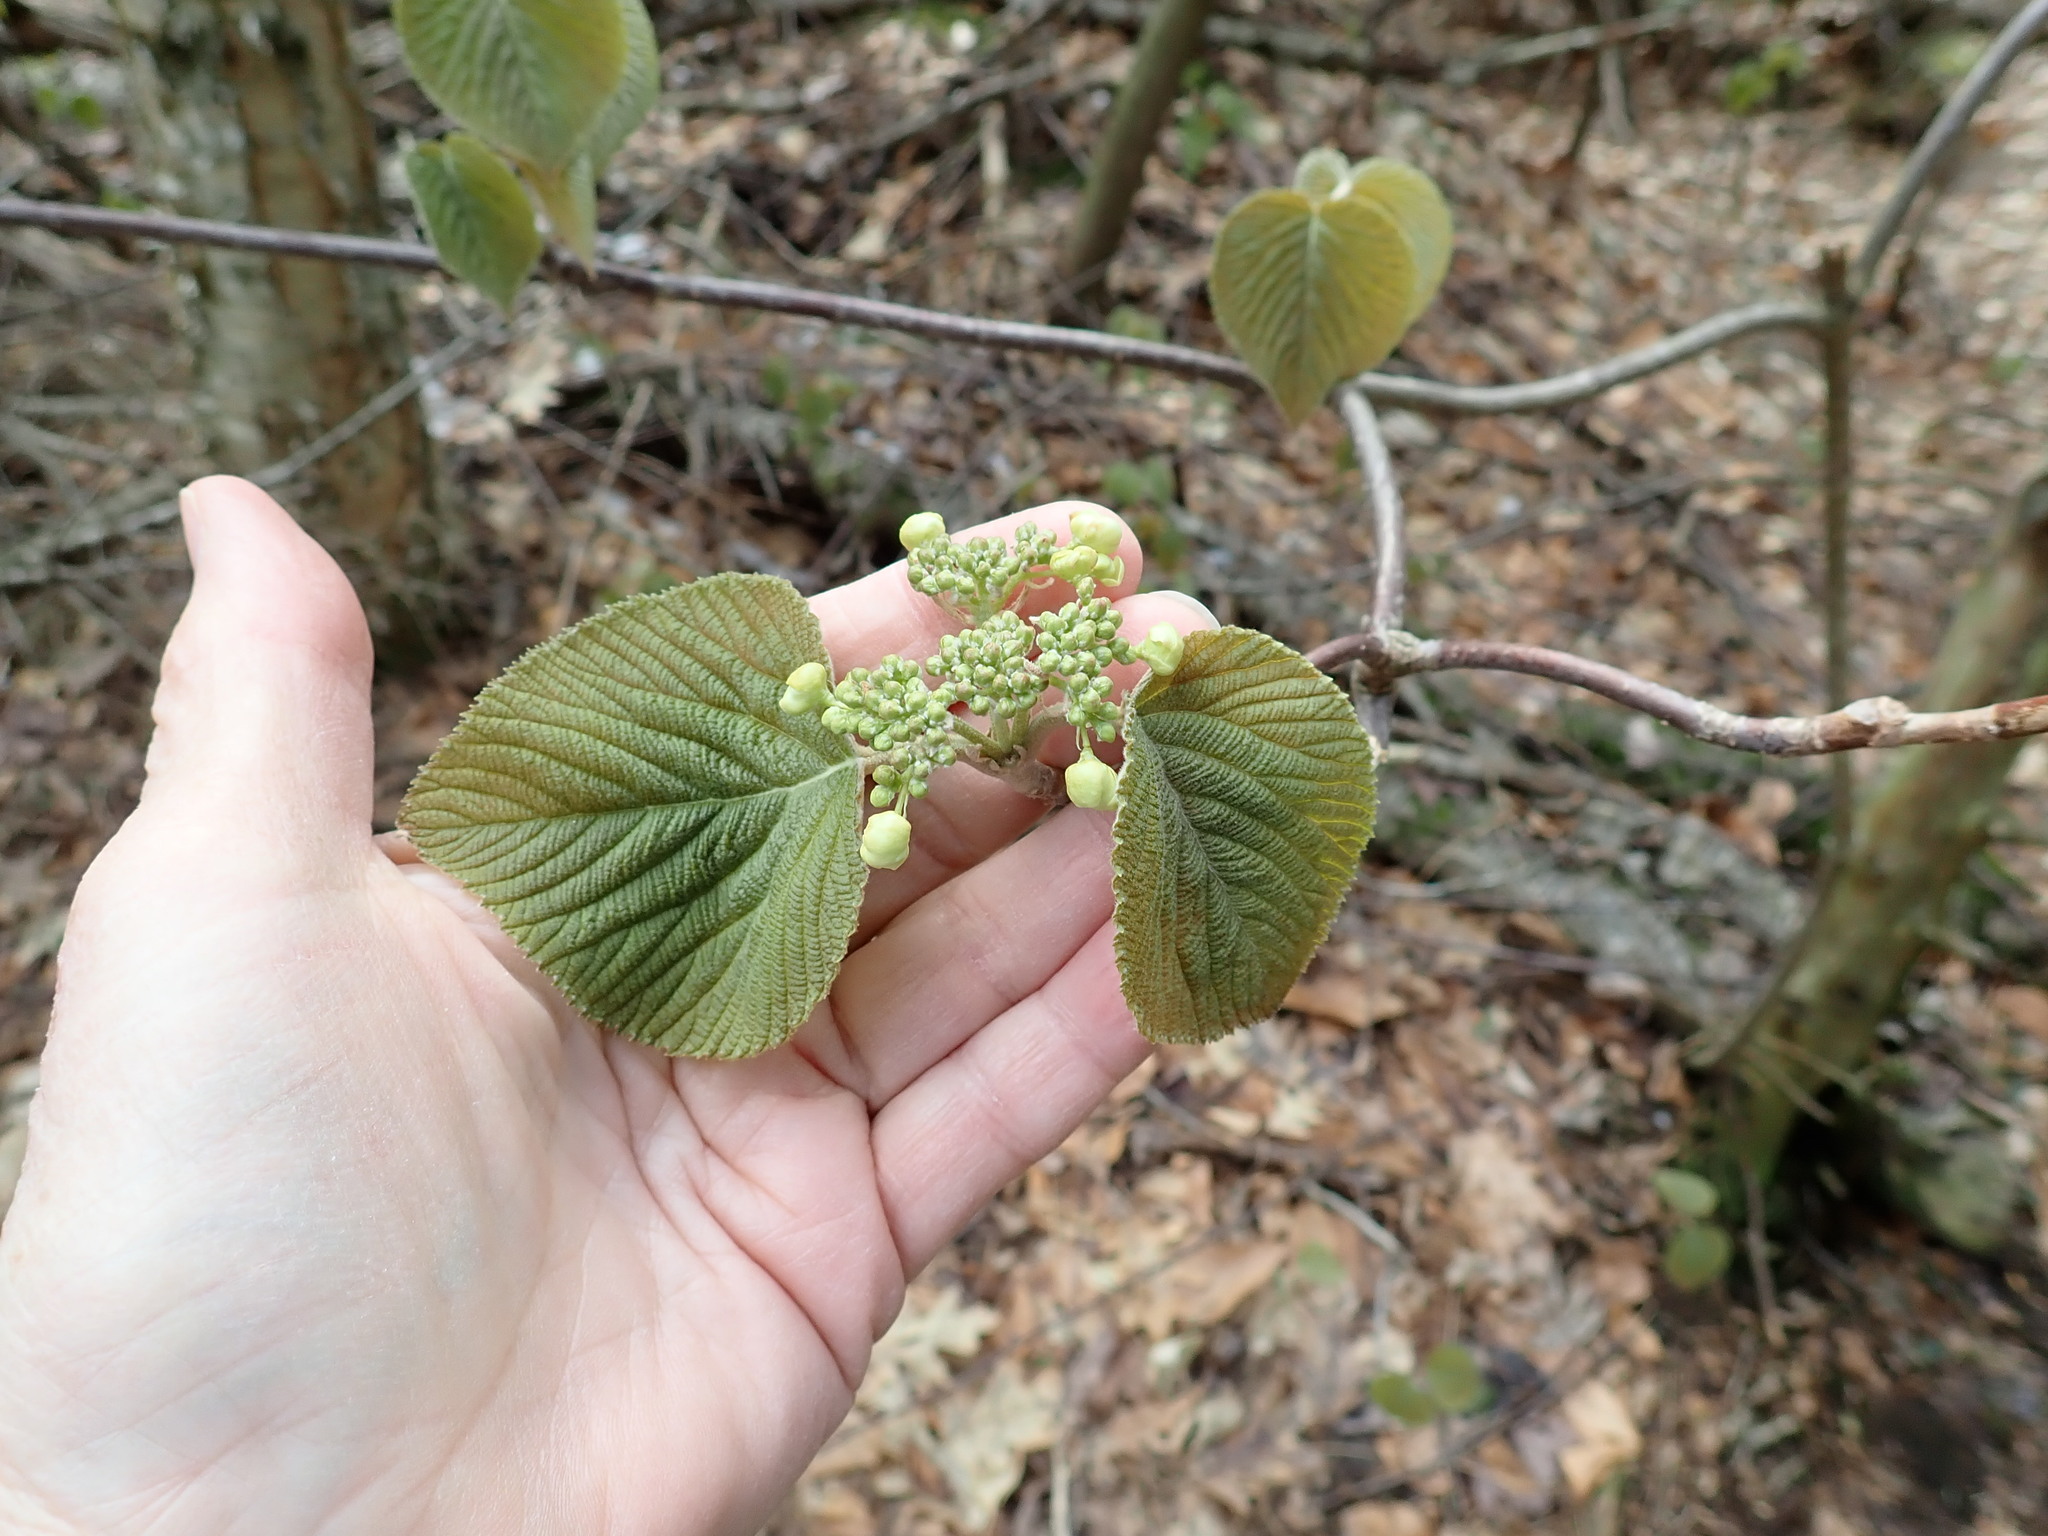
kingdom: Plantae
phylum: Tracheophyta
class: Magnoliopsida
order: Dipsacales
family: Viburnaceae
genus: Viburnum
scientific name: Viburnum lantanoides
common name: Hobblebush
